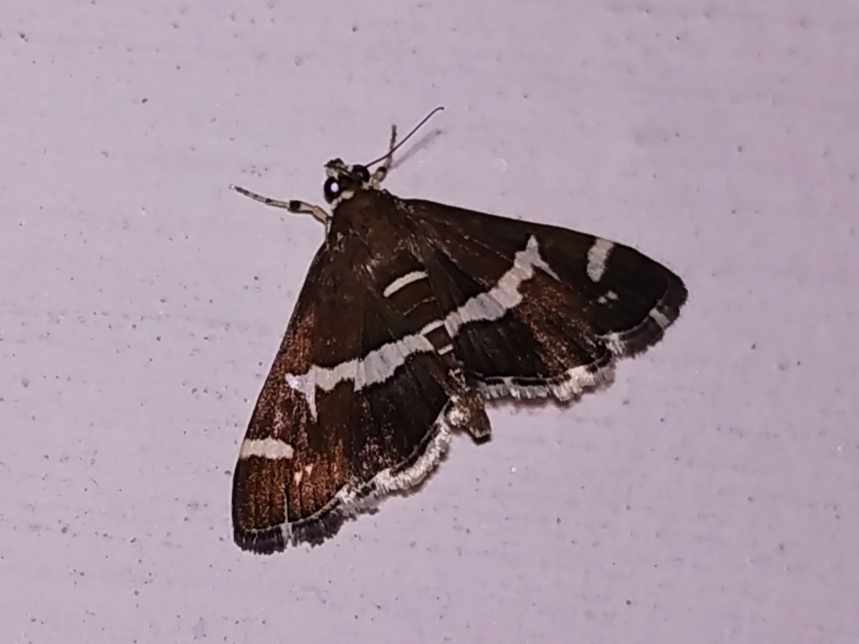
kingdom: Animalia
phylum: Arthropoda
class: Insecta
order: Lepidoptera
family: Crambidae
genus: Spoladea
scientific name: Spoladea recurvalis
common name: Beet webworm moth
